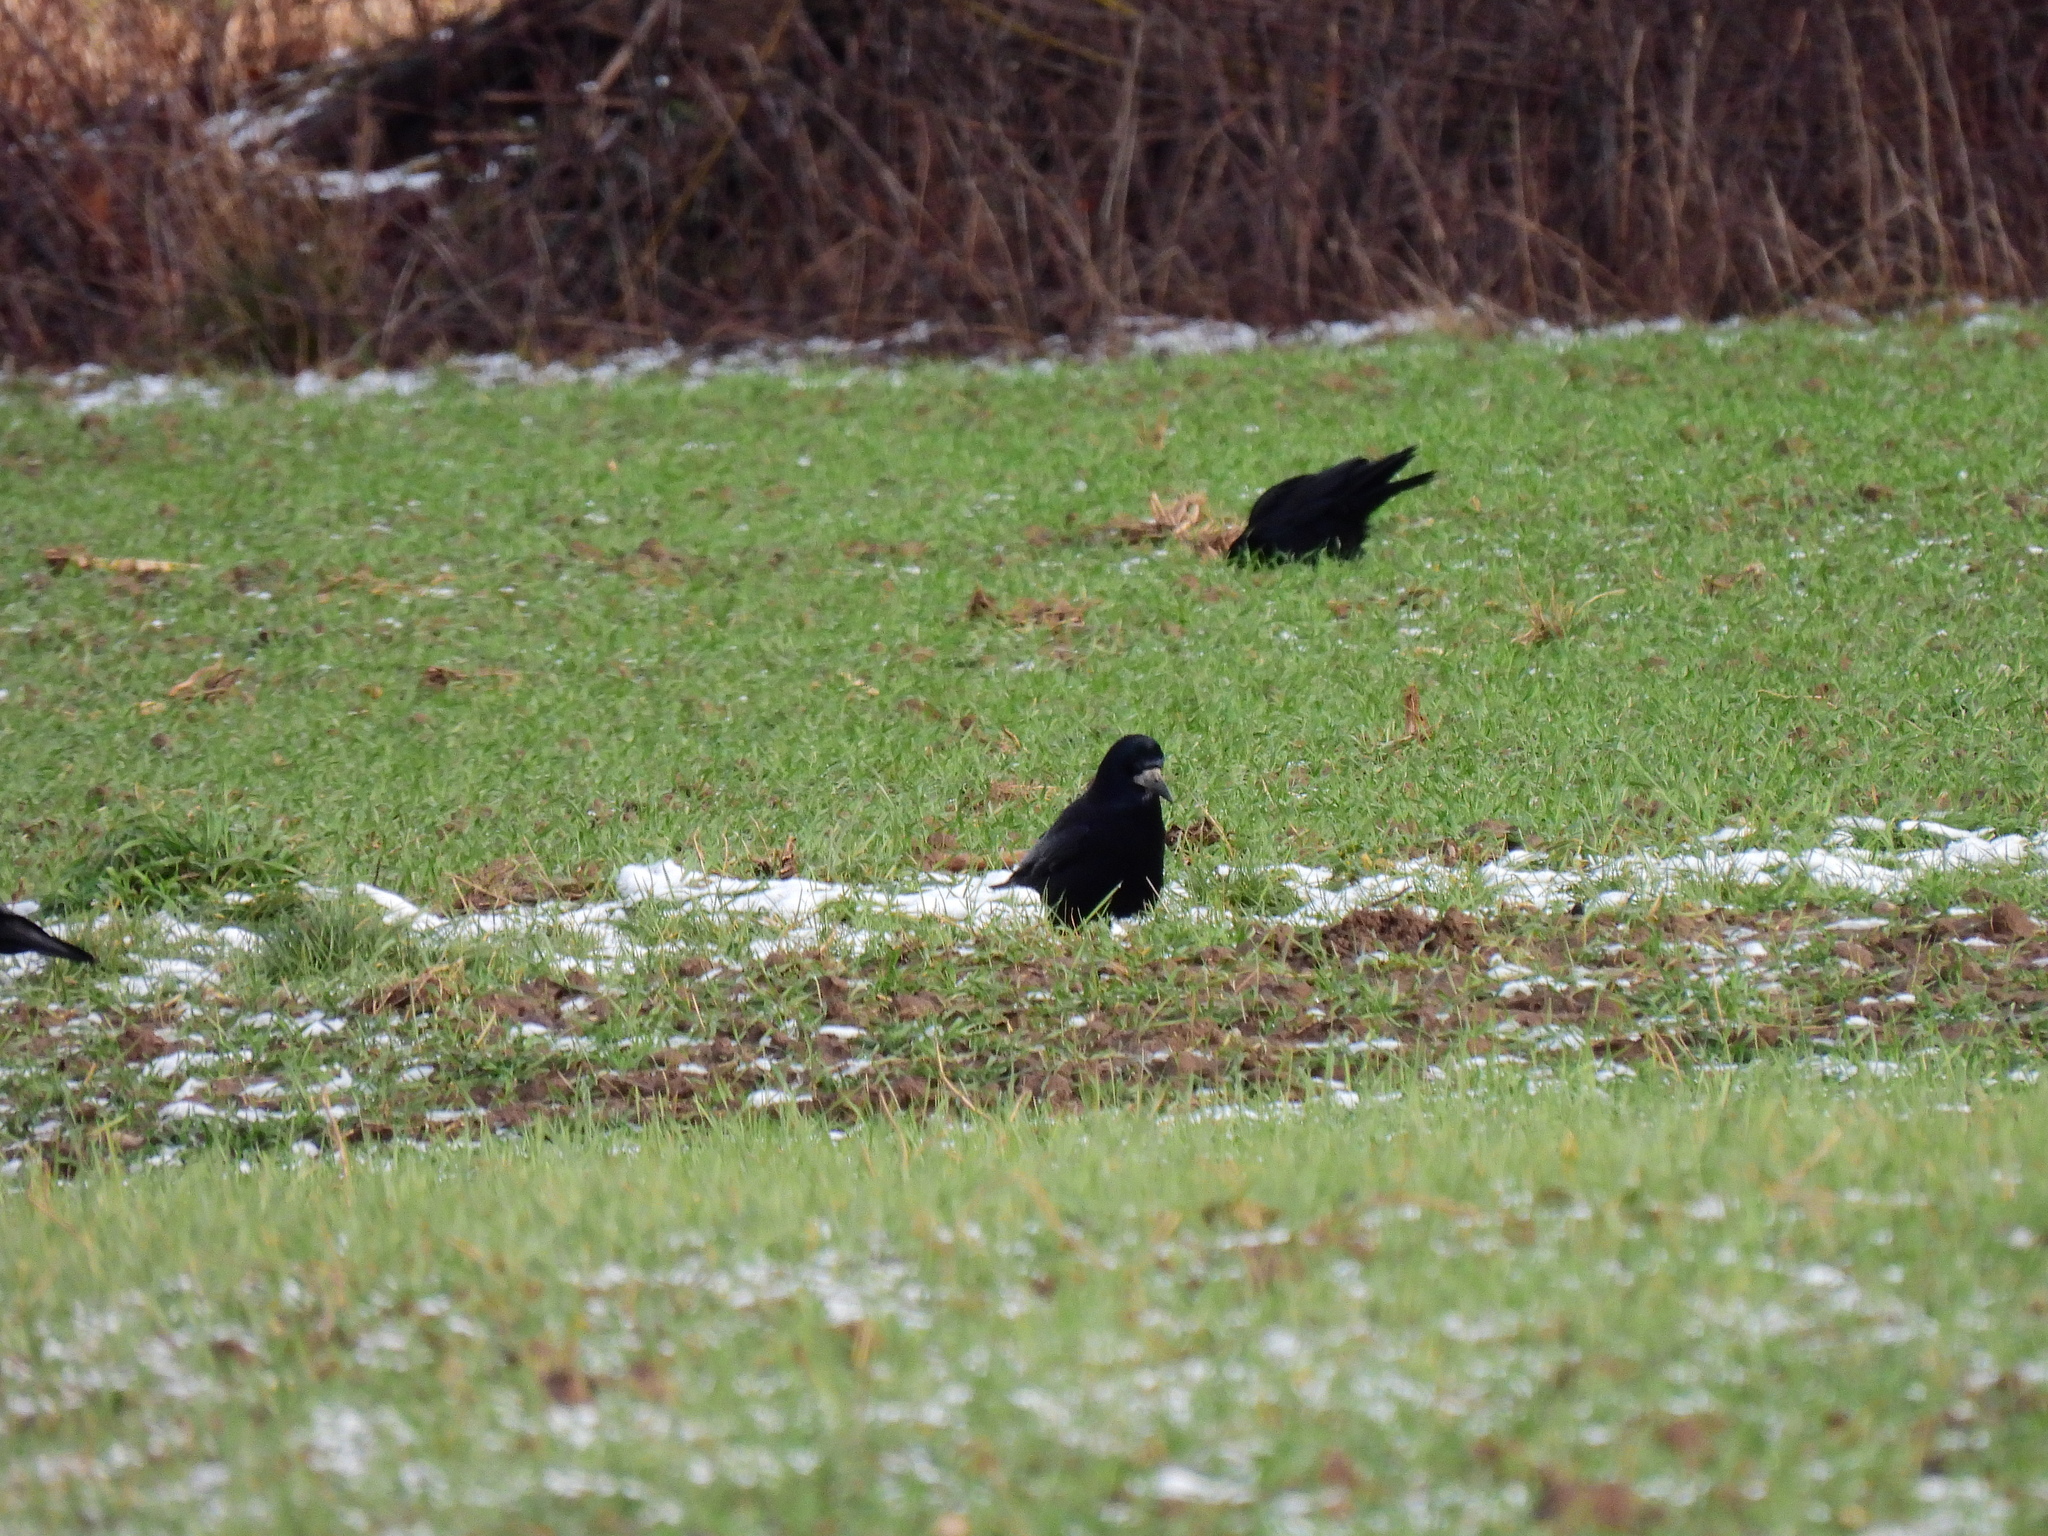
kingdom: Animalia
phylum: Chordata
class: Aves
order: Passeriformes
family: Corvidae
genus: Corvus
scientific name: Corvus frugilegus
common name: Rook
